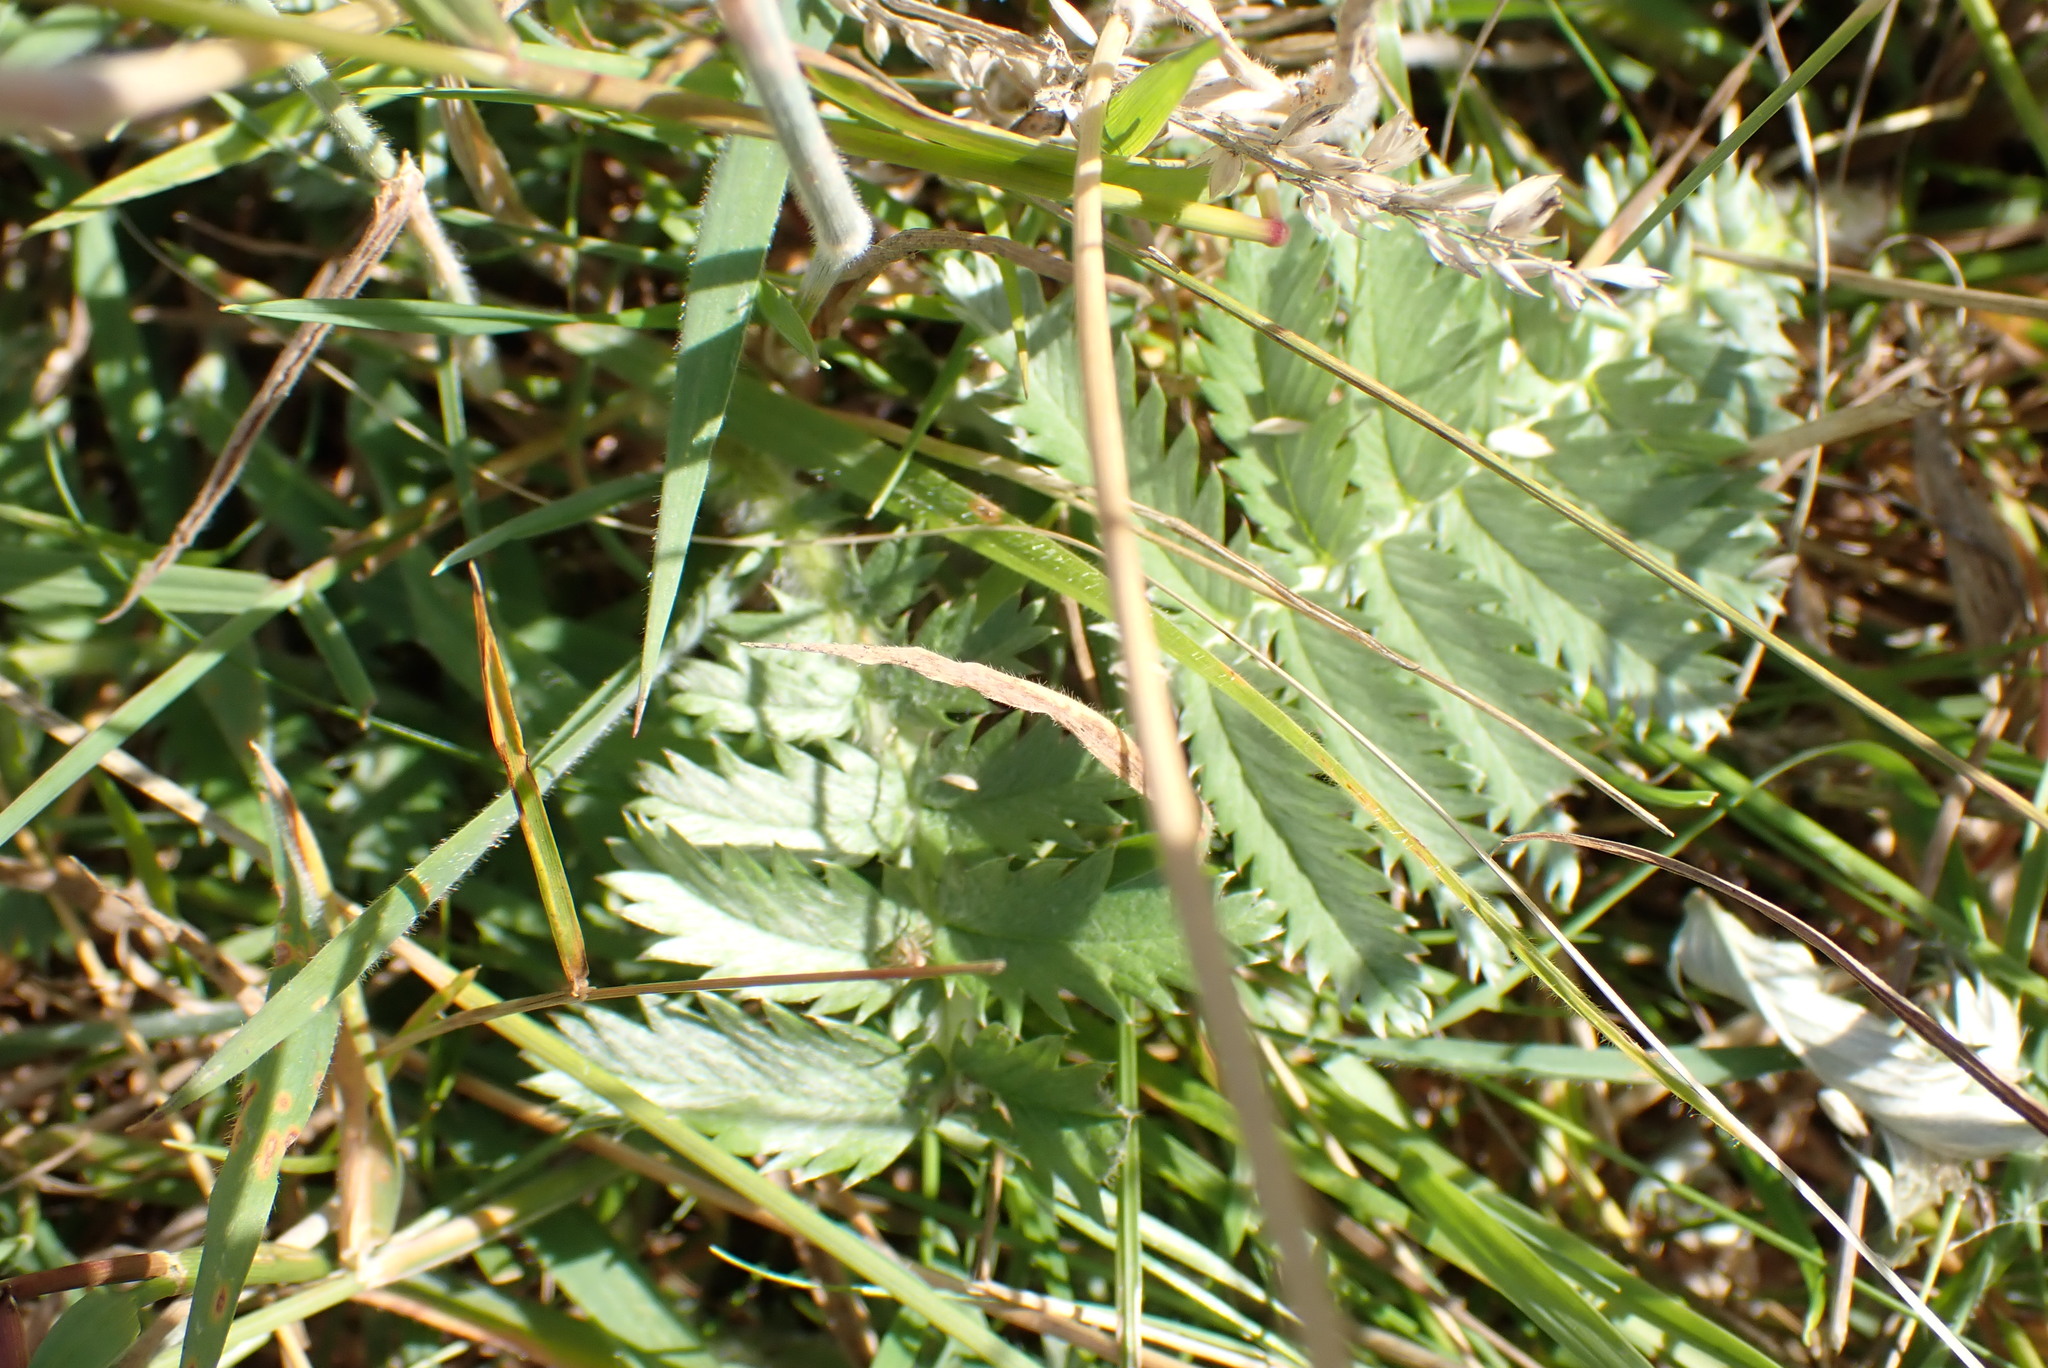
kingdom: Plantae
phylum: Tracheophyta
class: Magnoliopsida
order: Rosales
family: Rosaceae
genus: Argentina
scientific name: Argentina anserina
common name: Common silverweed
